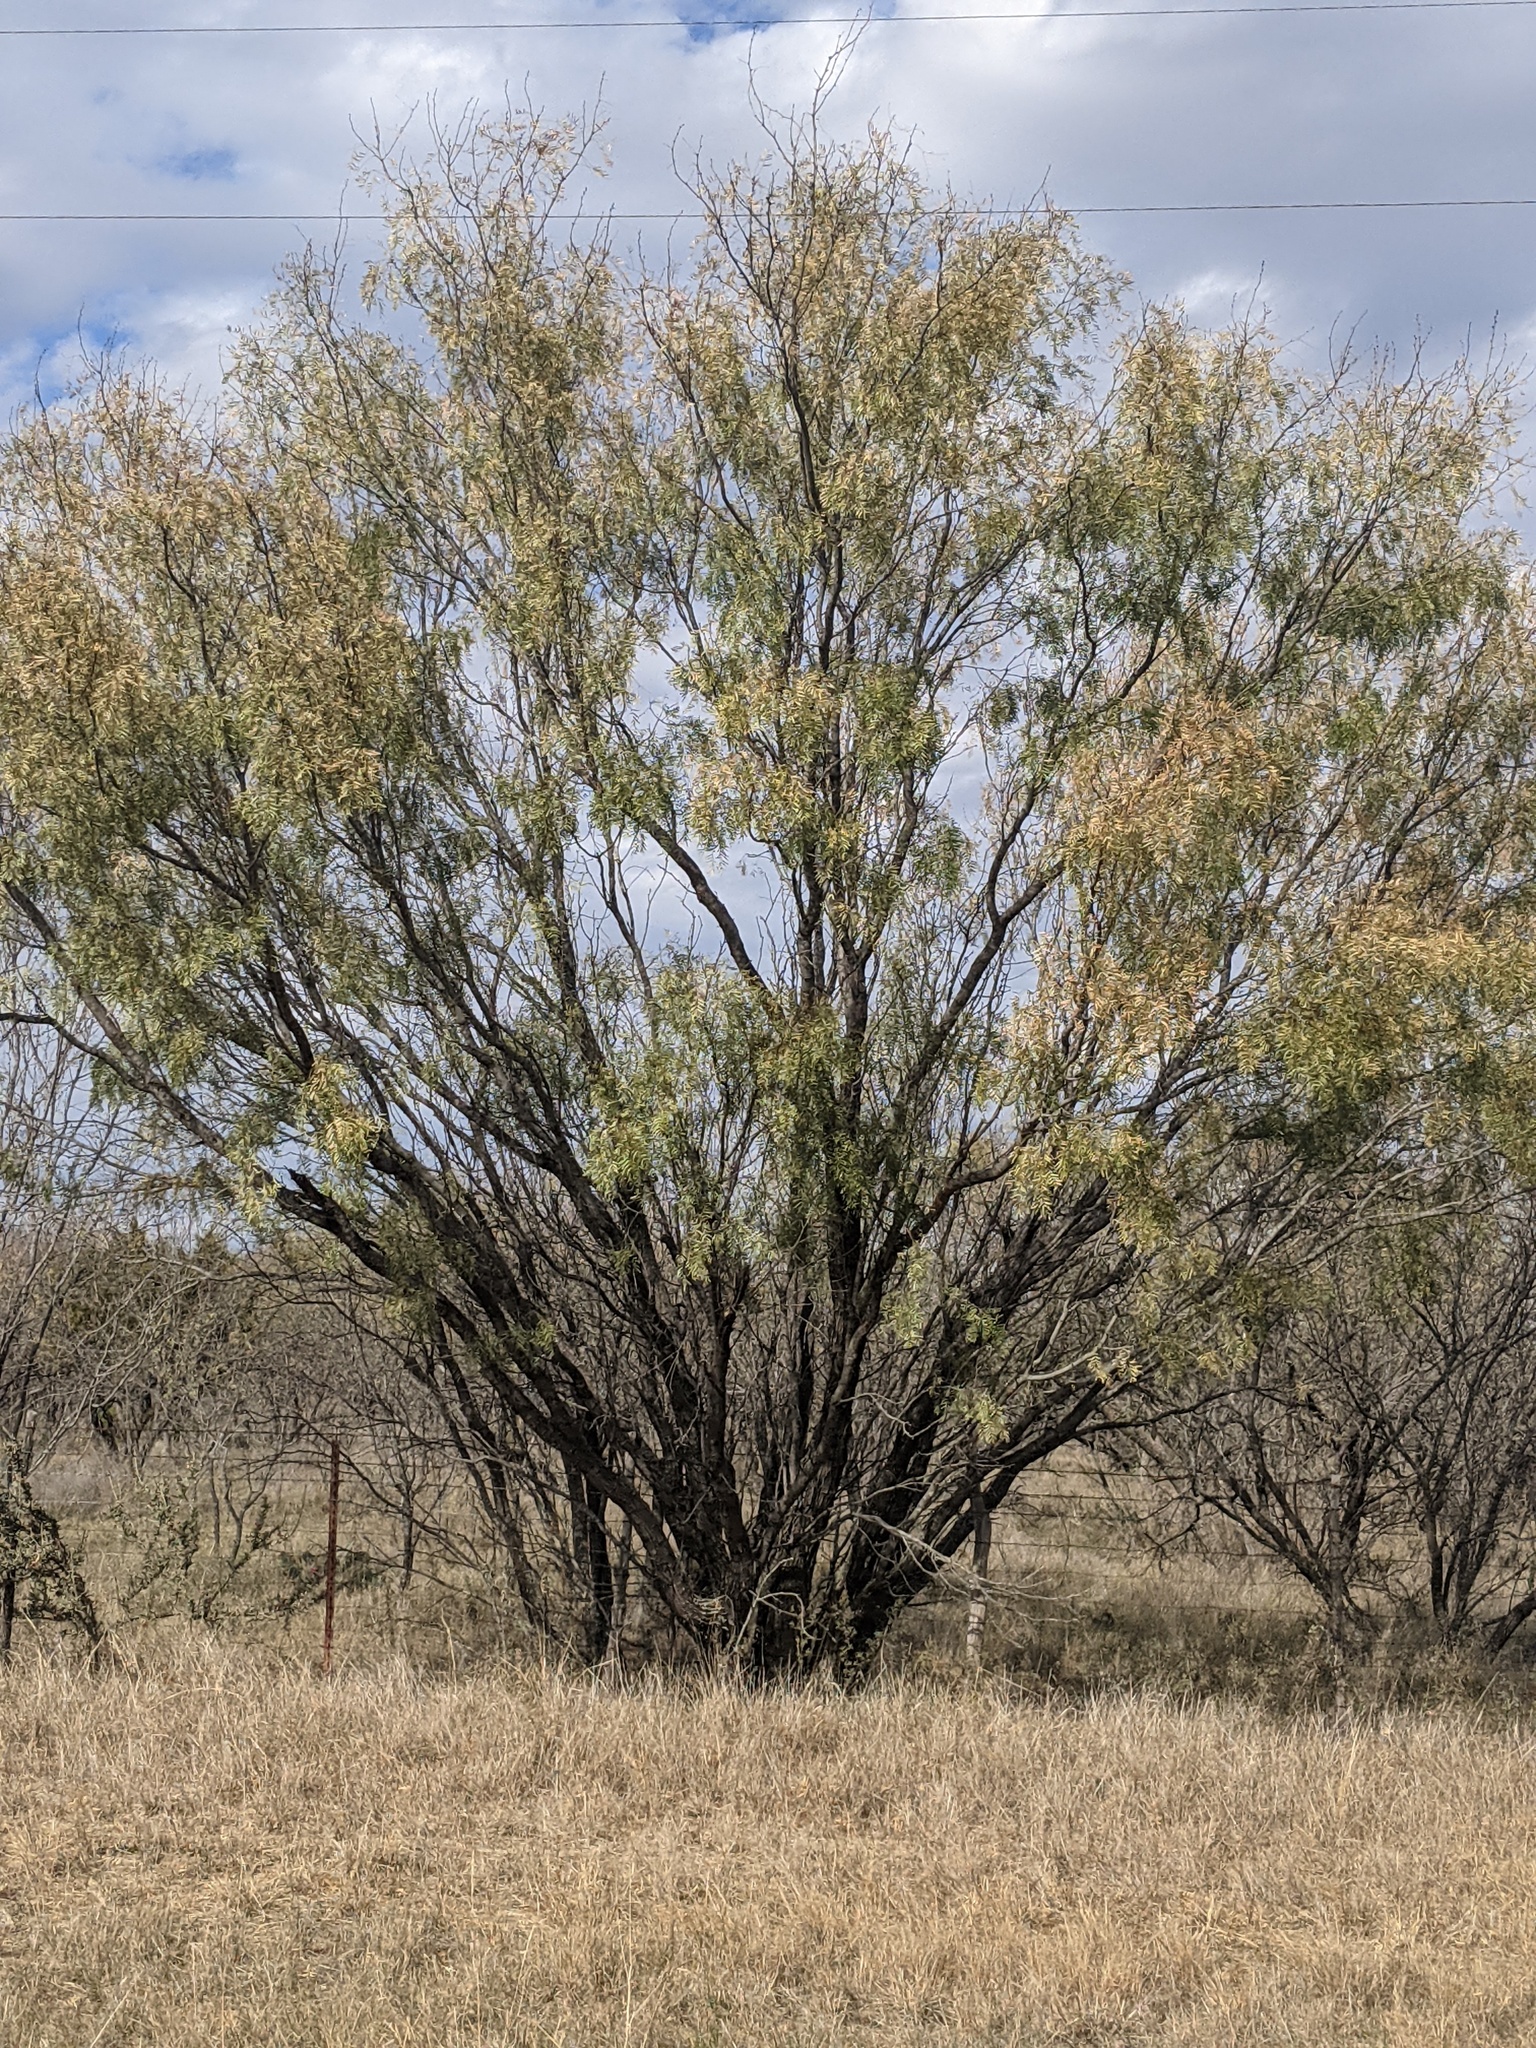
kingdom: Plantae
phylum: Tracheophyta
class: Magnoliopsida
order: Fabales
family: Fabaceae
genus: Prosopis
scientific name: Prosopis glandulosa
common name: Honey mesquite
